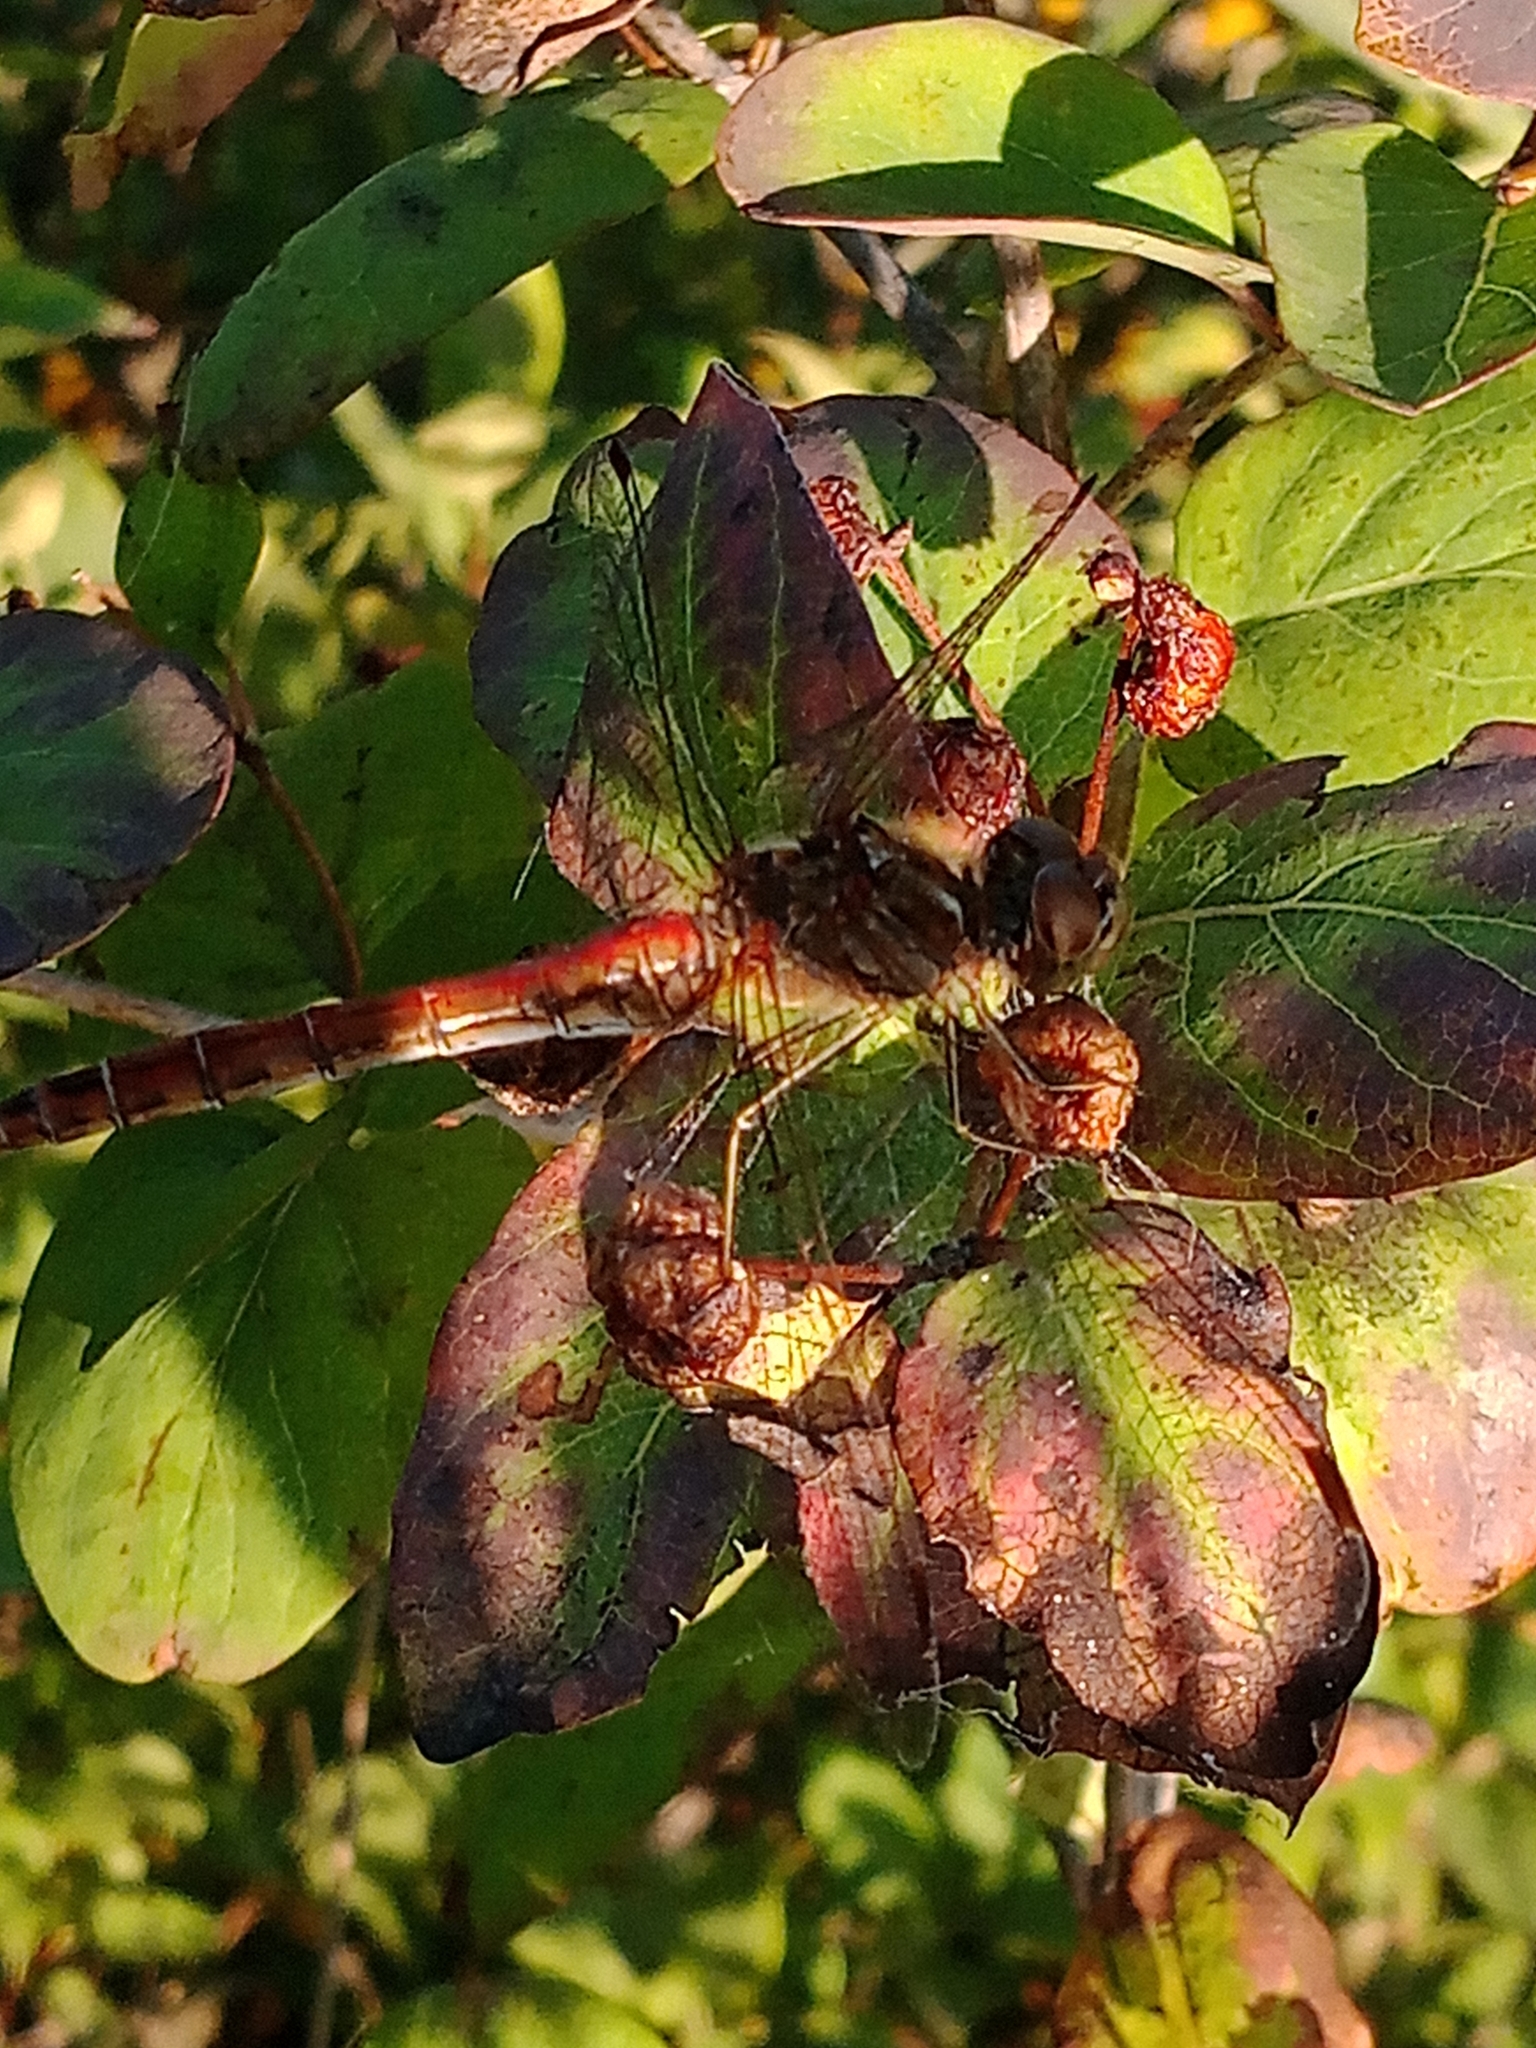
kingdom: Animalia
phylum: Arthropoda
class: Insecta
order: Odonata
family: Libellulidae
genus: Sympetrum
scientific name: Sympetrum vulgatum
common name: Vagrant darter
